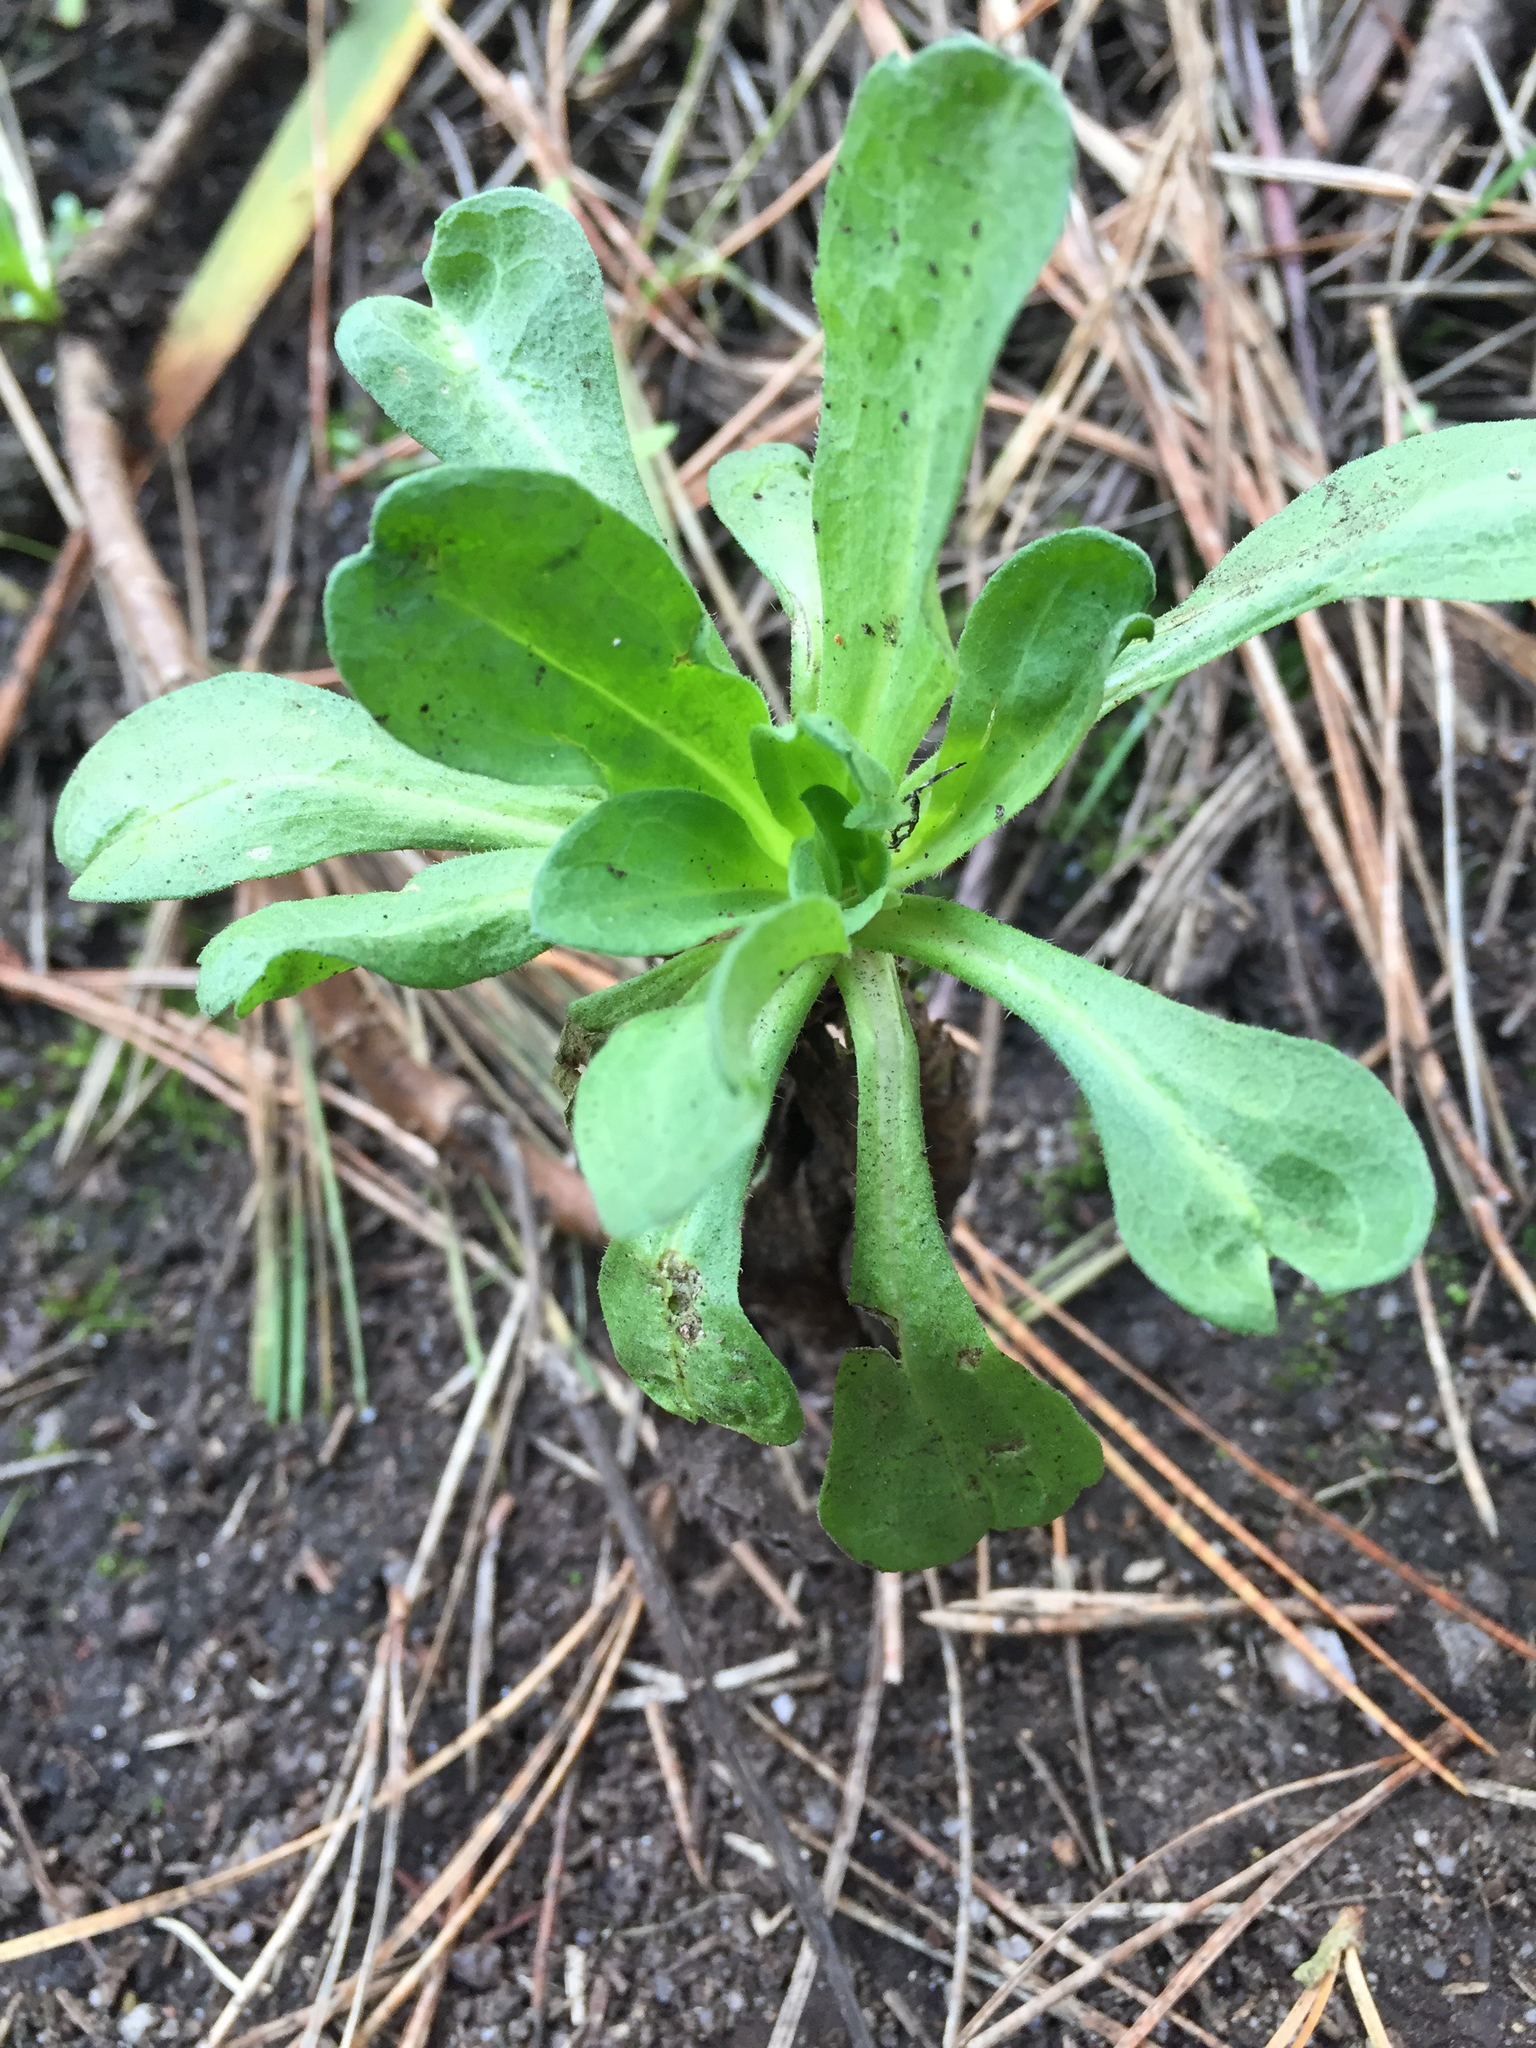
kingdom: Plantae
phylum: Tracheophyta
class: Magnoliopsida
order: Asterales
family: Asteraceae
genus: Erigeron
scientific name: Erigeron glaucus
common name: Seaside daisy
